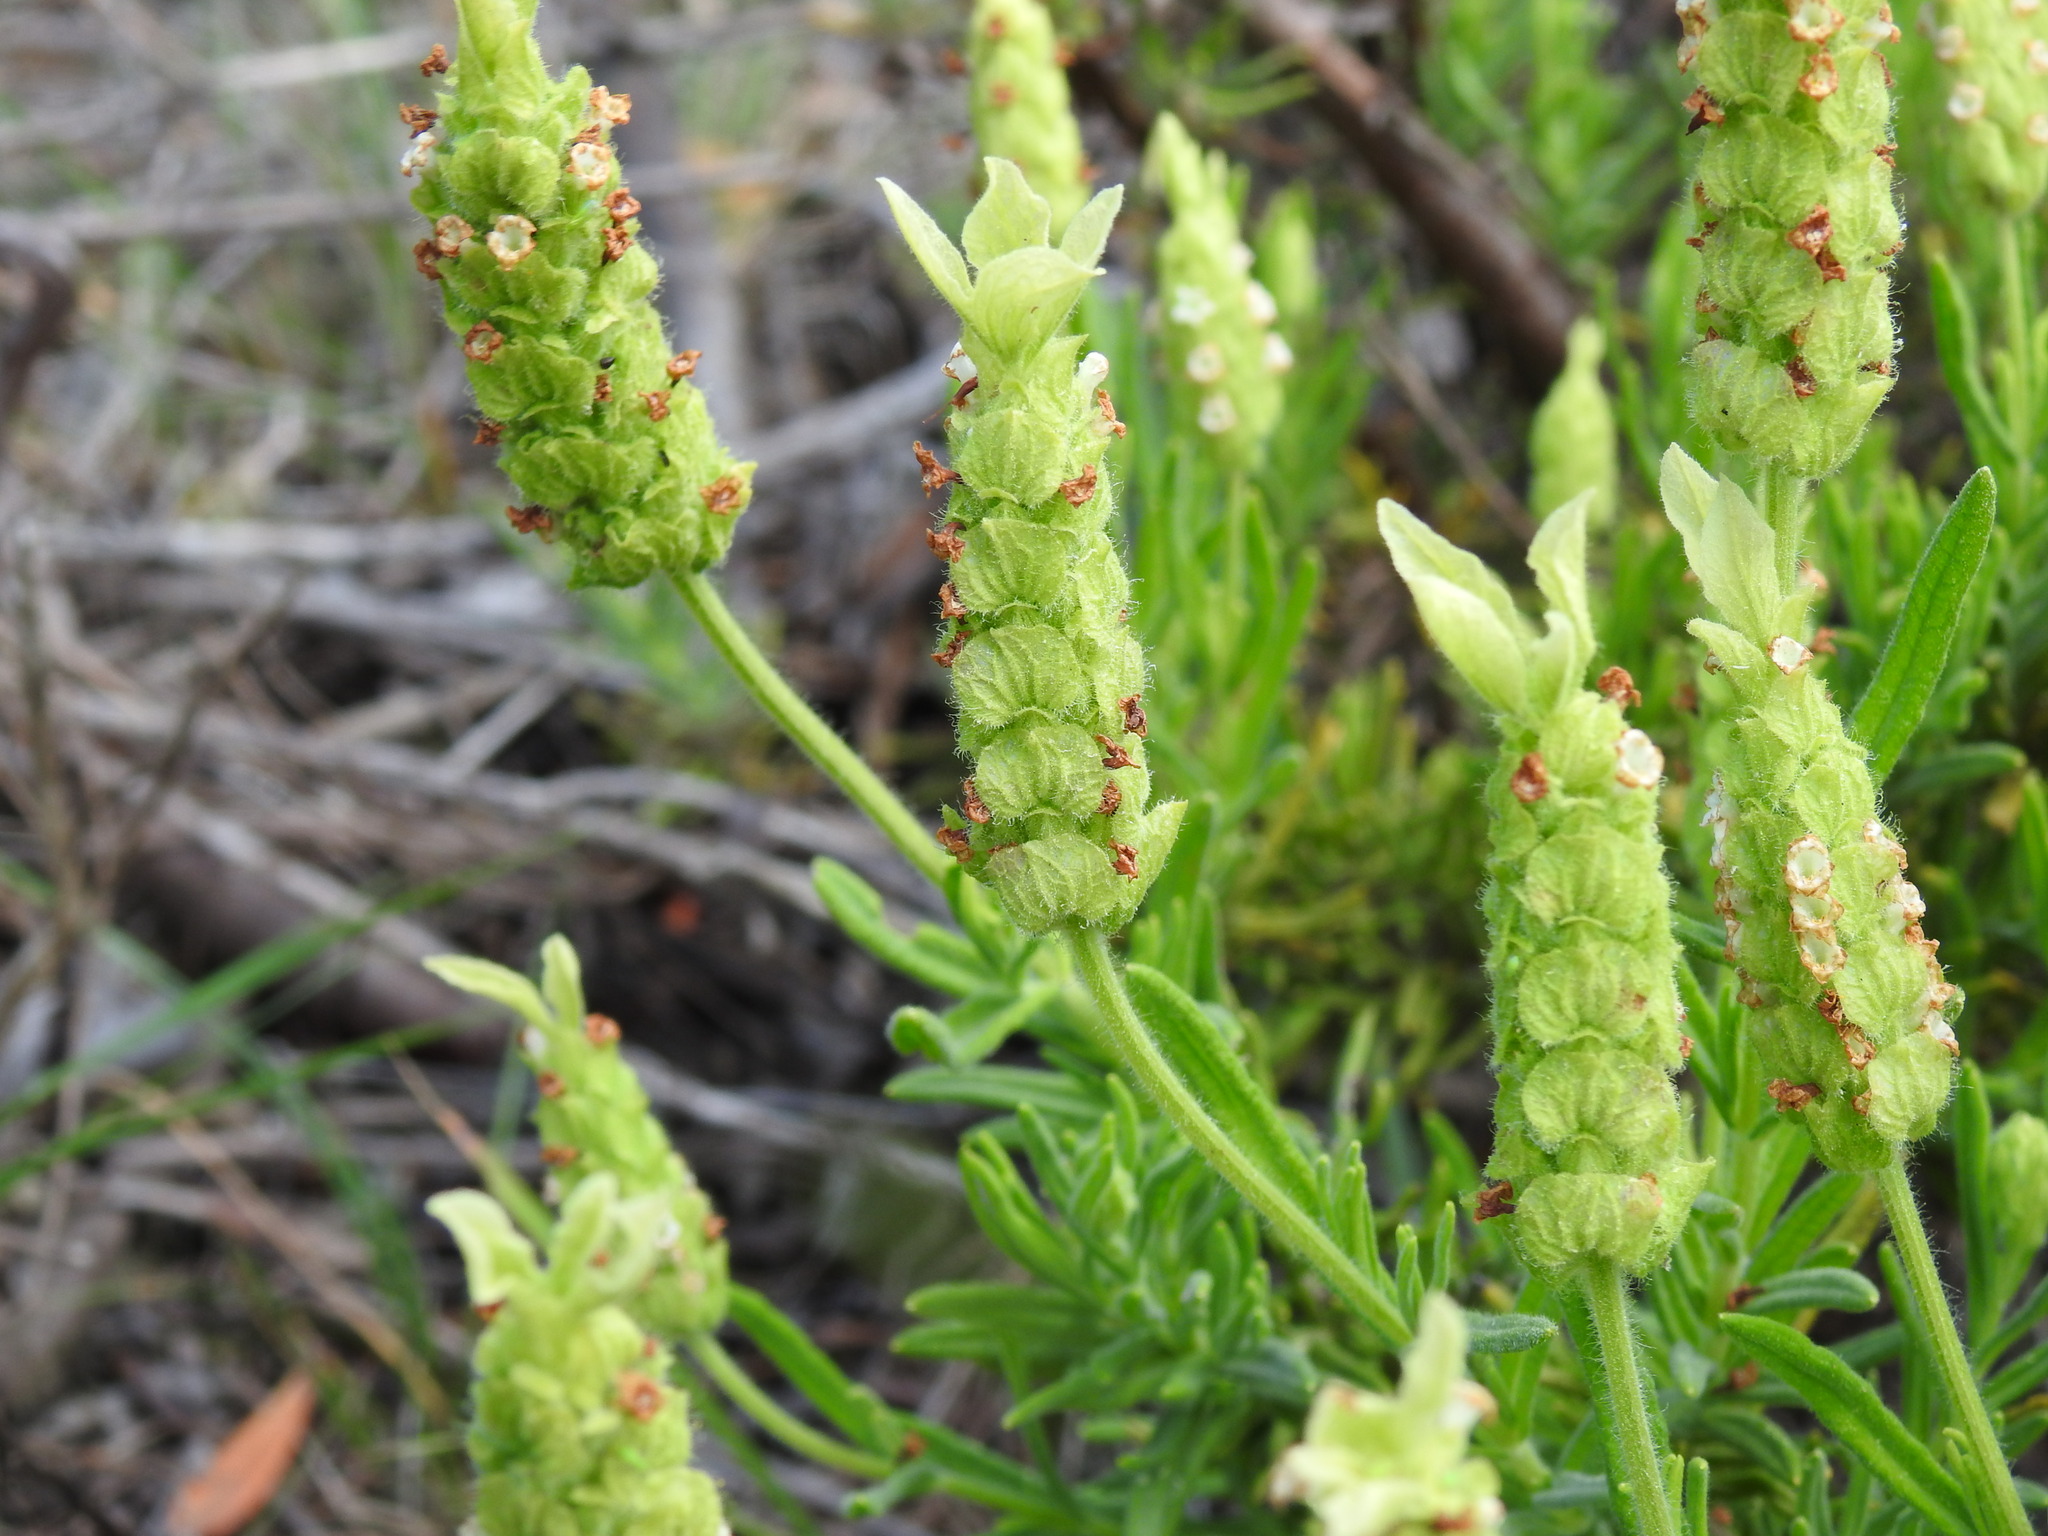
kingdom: Plantae
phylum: Tracheophyta
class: Magnoliopsida
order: Lamiales
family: Lamiaceae
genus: Lavandula
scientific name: Lavandula viridis
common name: Green spanish lavender
